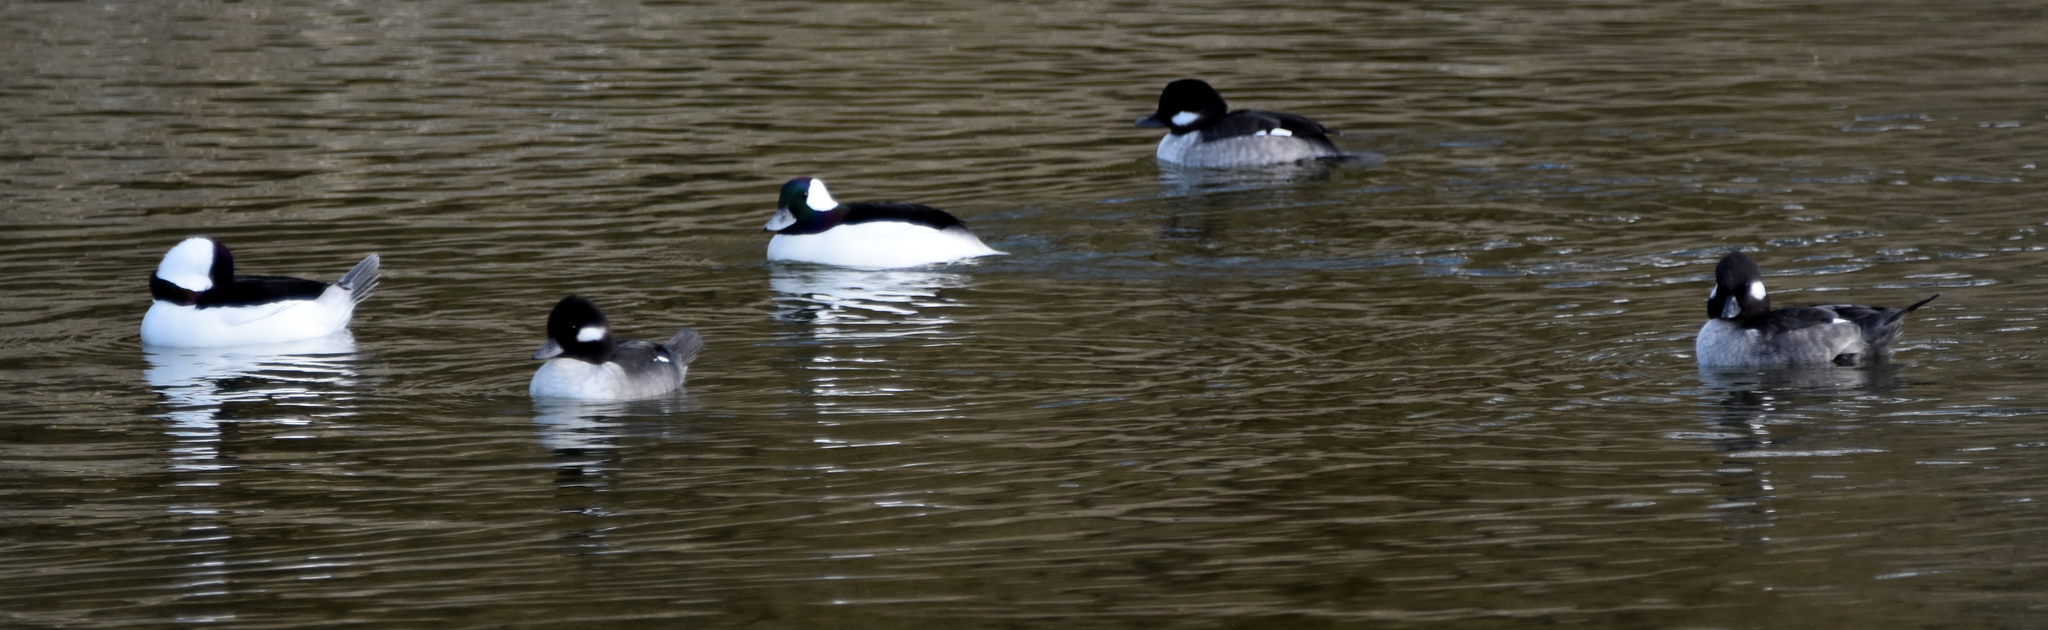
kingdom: Animalia
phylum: Chordata
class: Aves
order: Anseriformes
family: Anatidae
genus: Bucephala
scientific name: Bucephala albeola
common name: Bufflehead
